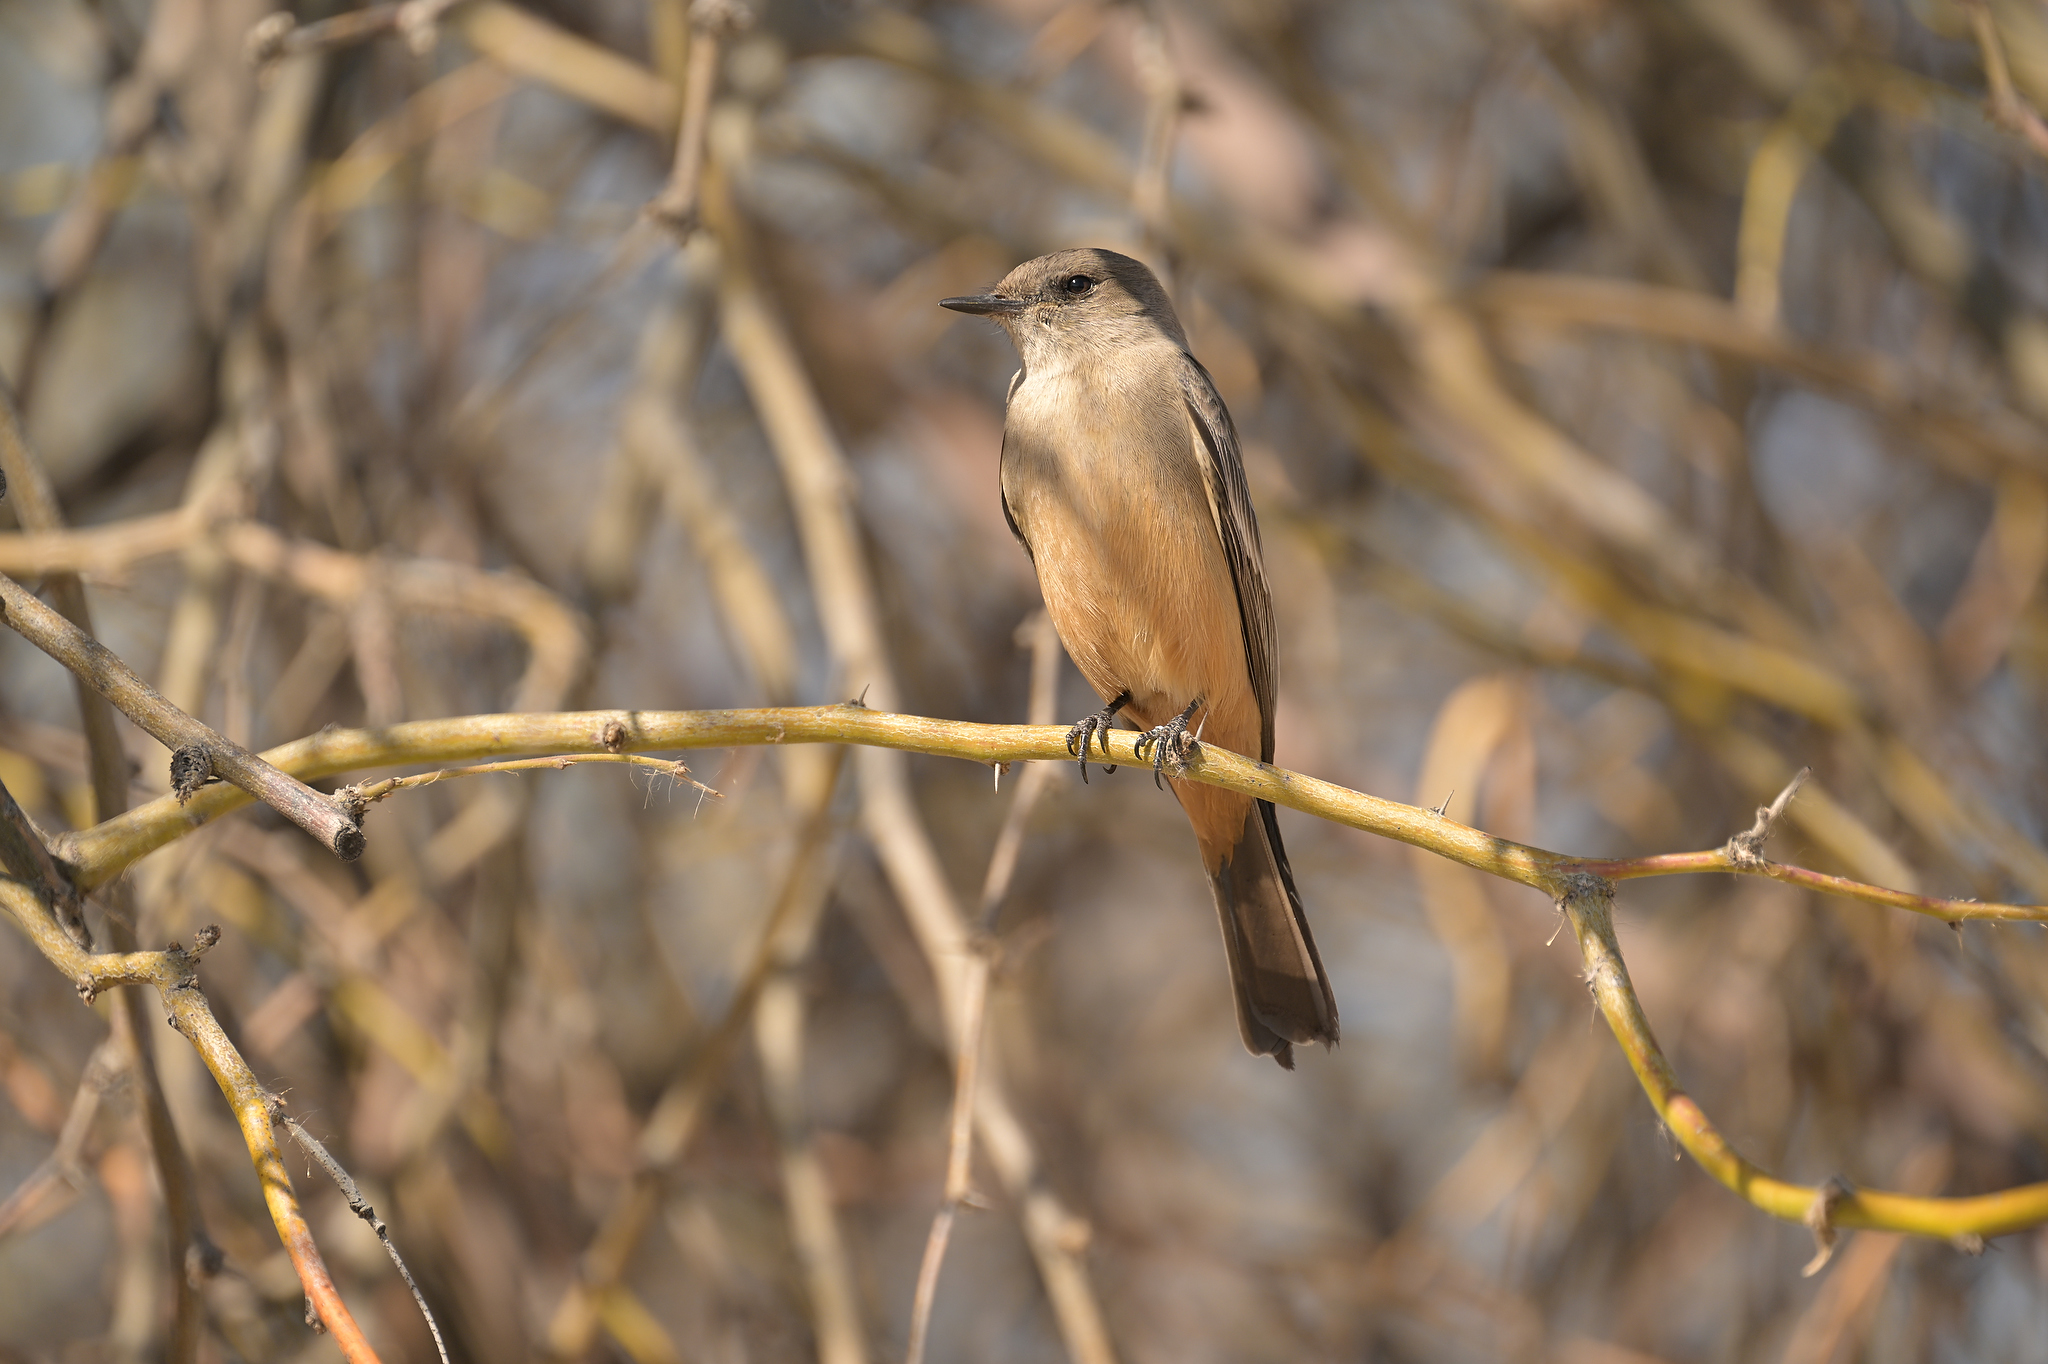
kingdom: Animalia
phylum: Chordata
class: Aves
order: Passeriformes
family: Tyrannidae
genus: Sayornis
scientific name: Sayornis saya
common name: Say's phoebe
